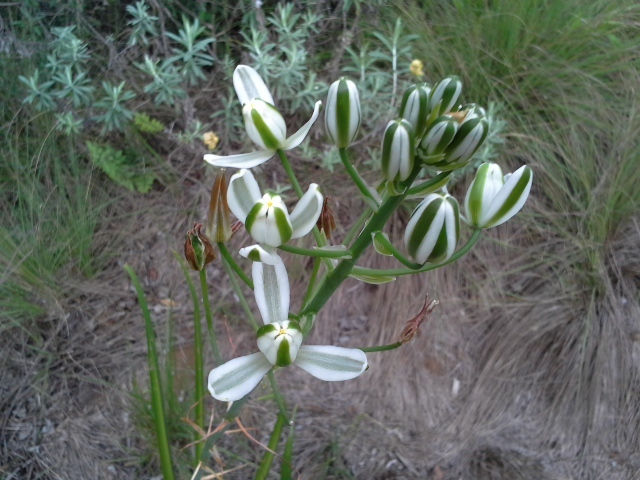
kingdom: Plantae
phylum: Tracheophyta
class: Liliopsida
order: Asparagales
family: Asparagaceae
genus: Albuca
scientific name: Albuca nelsonii
